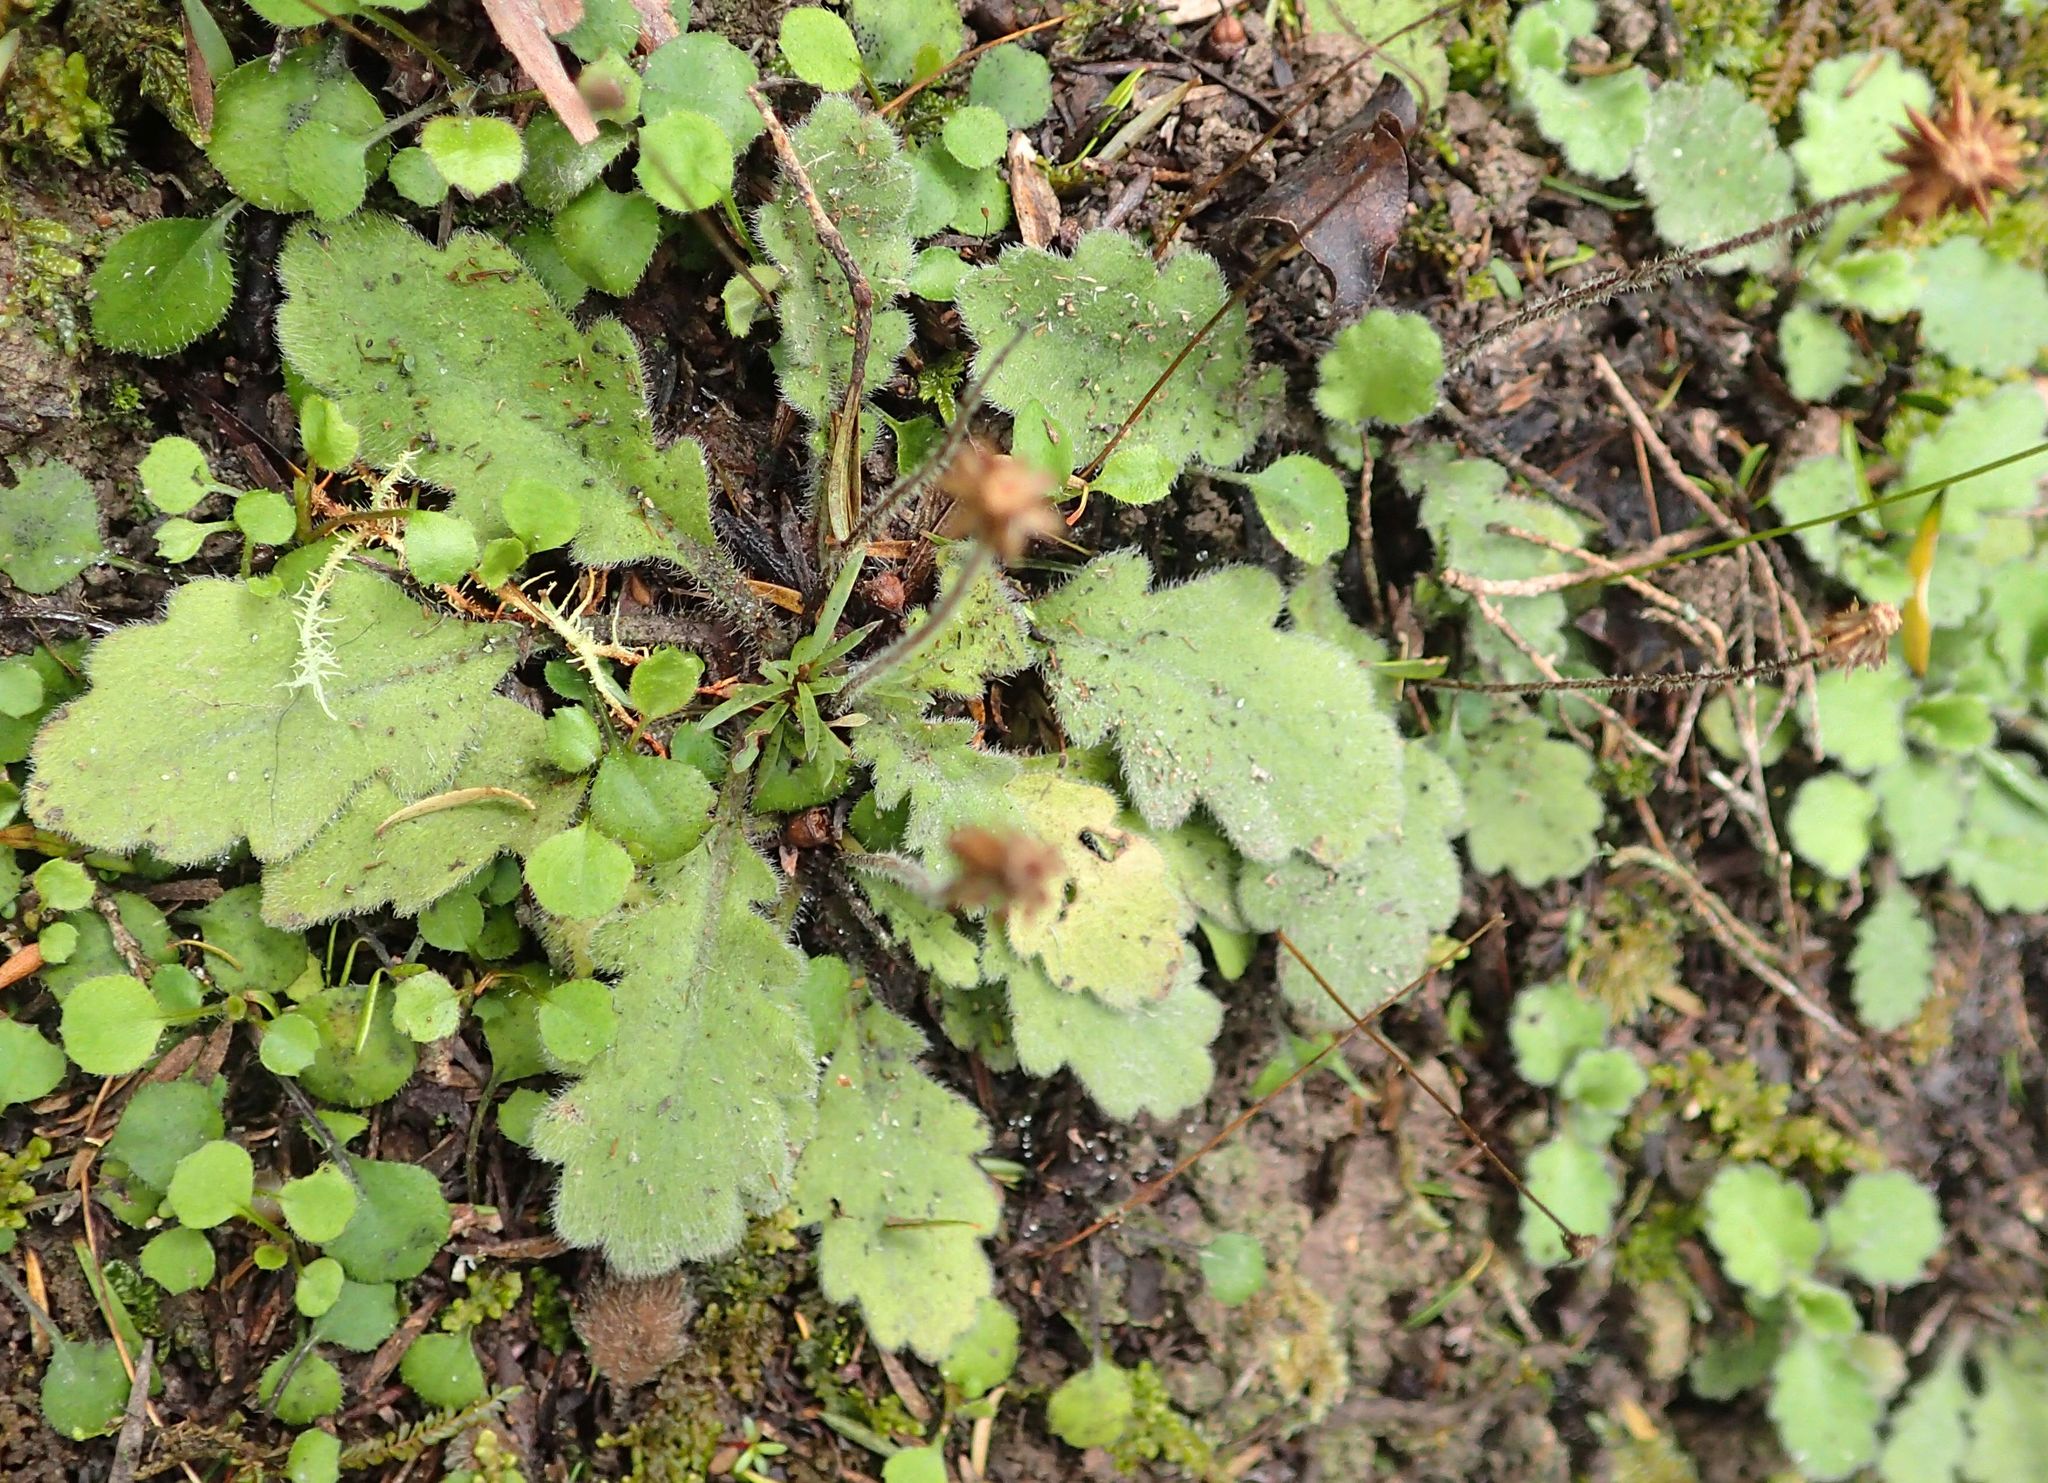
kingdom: Plantae
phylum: Tracheophyta
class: Magnoliopsida
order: Asterales
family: Asteraceae
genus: Lagenophora
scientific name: Lagenophora pinnatifida
